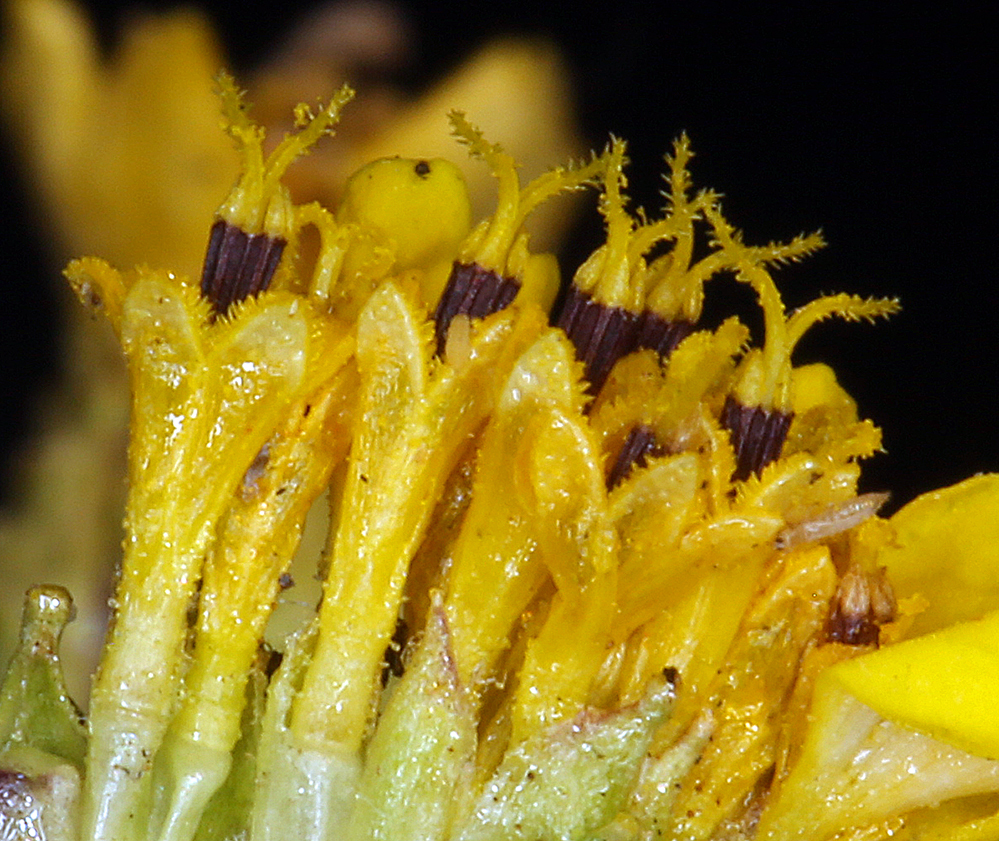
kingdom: Plantae
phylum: Tracheophyta
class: Magnoliopsida
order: Asterales
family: Asteraceae
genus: Holocarpha
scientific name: Holocarpha virgata
